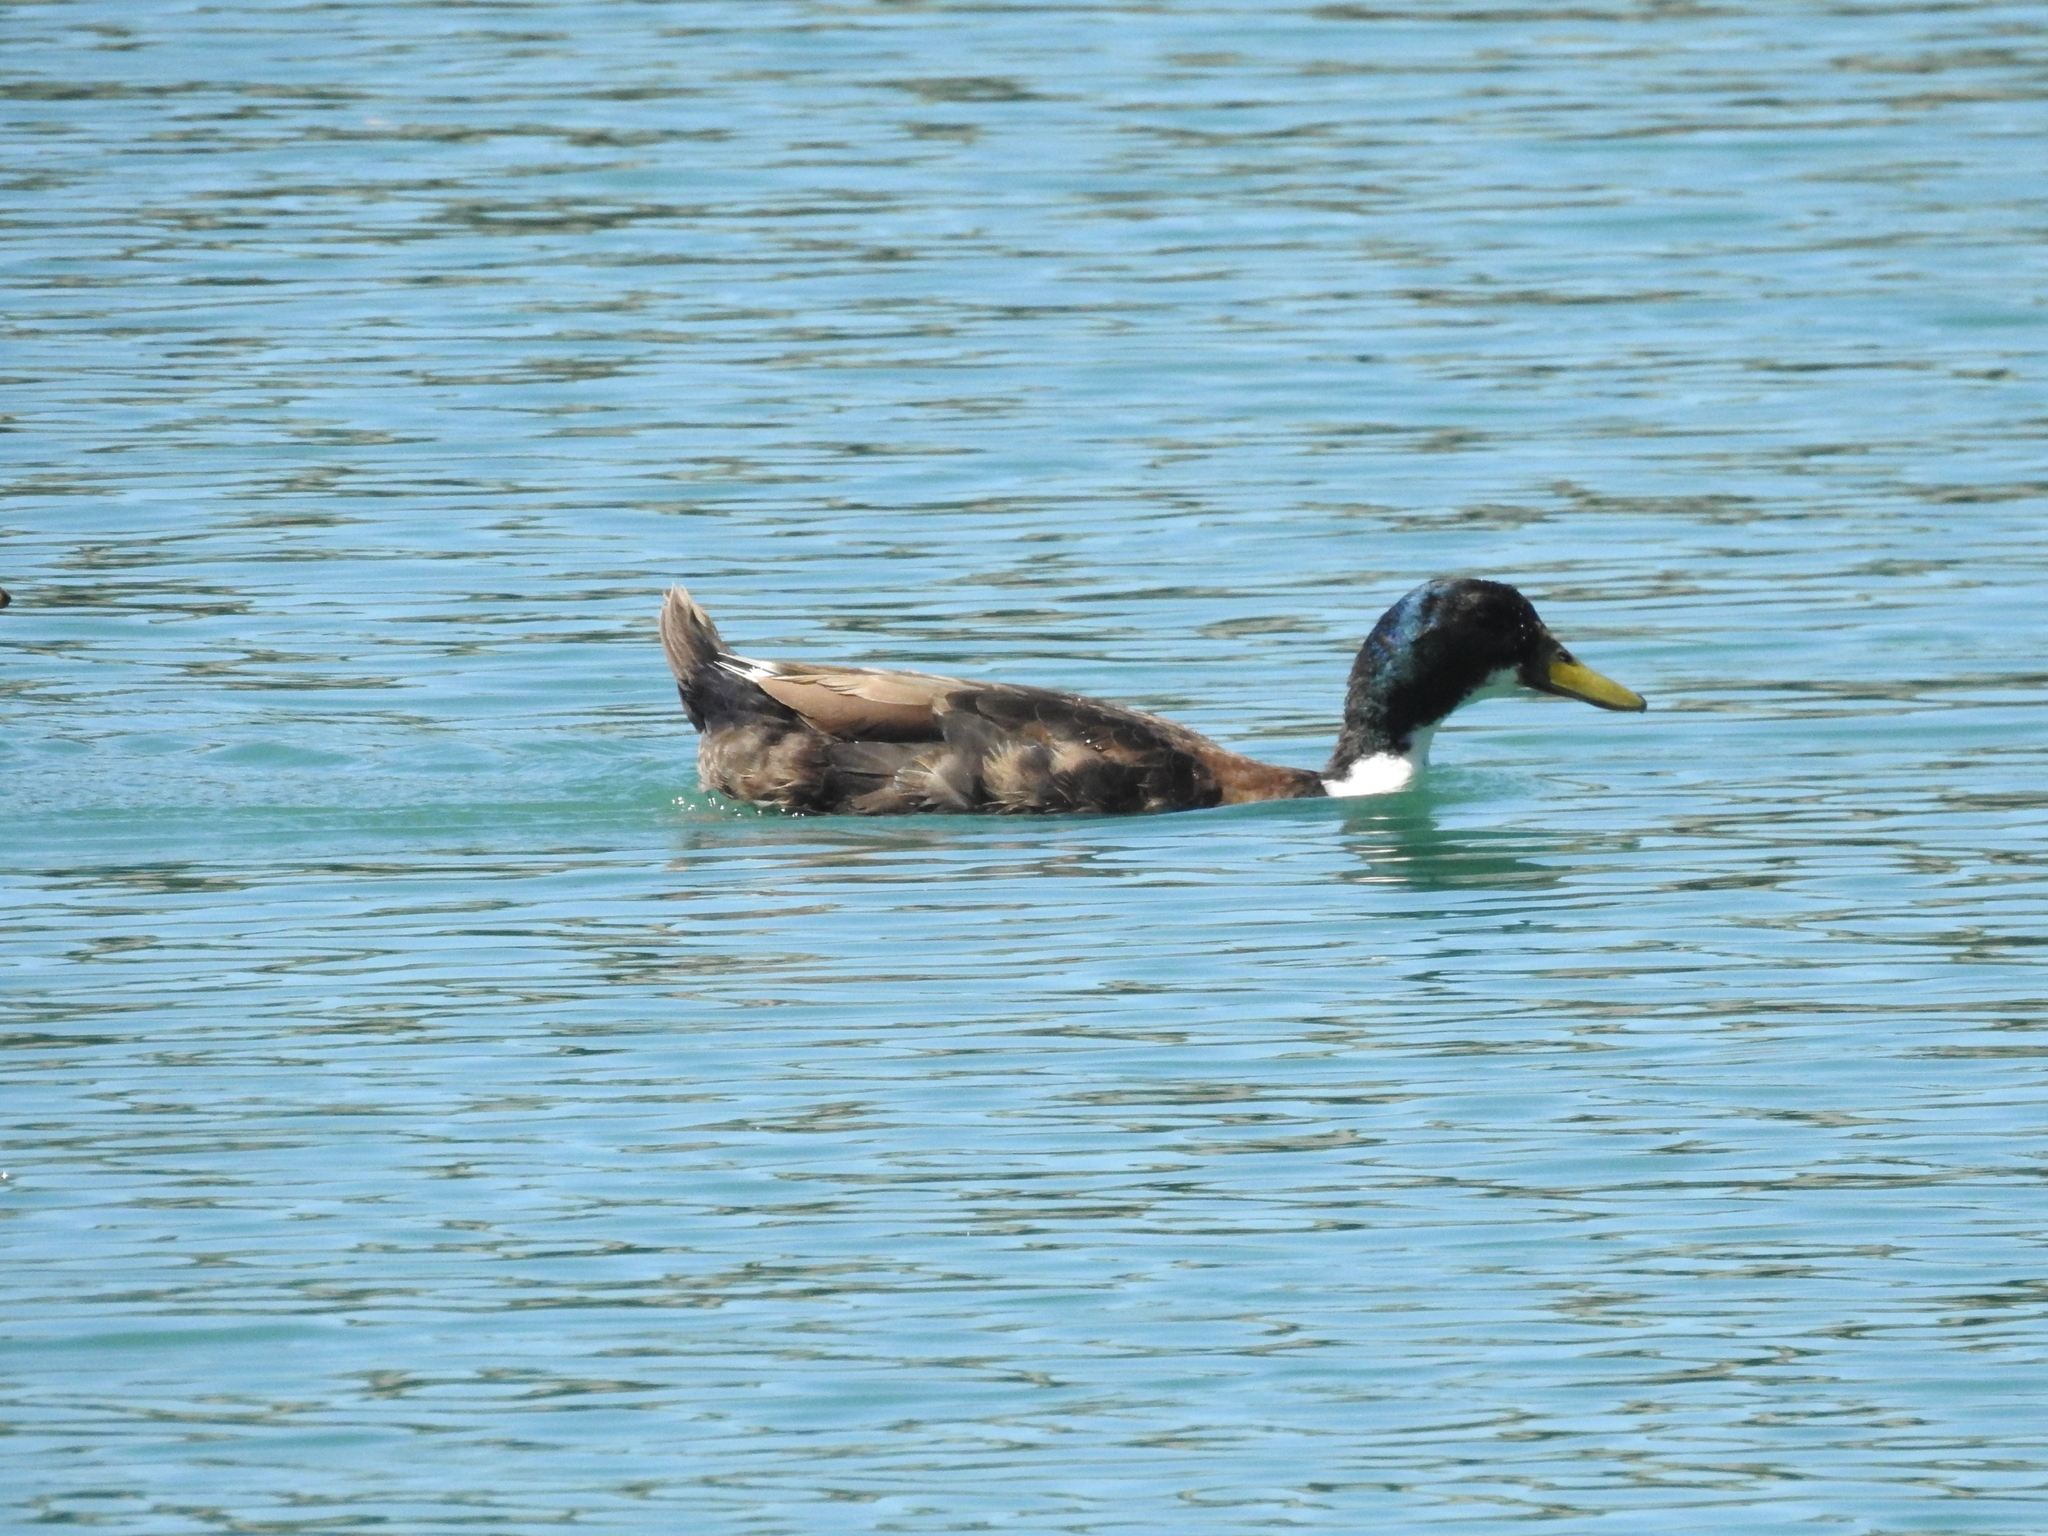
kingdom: Animalia
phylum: Chordata
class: Aves
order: Anseriformes
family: Anatidae
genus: Anas
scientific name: Anas platyrhynchos
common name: Mallard
